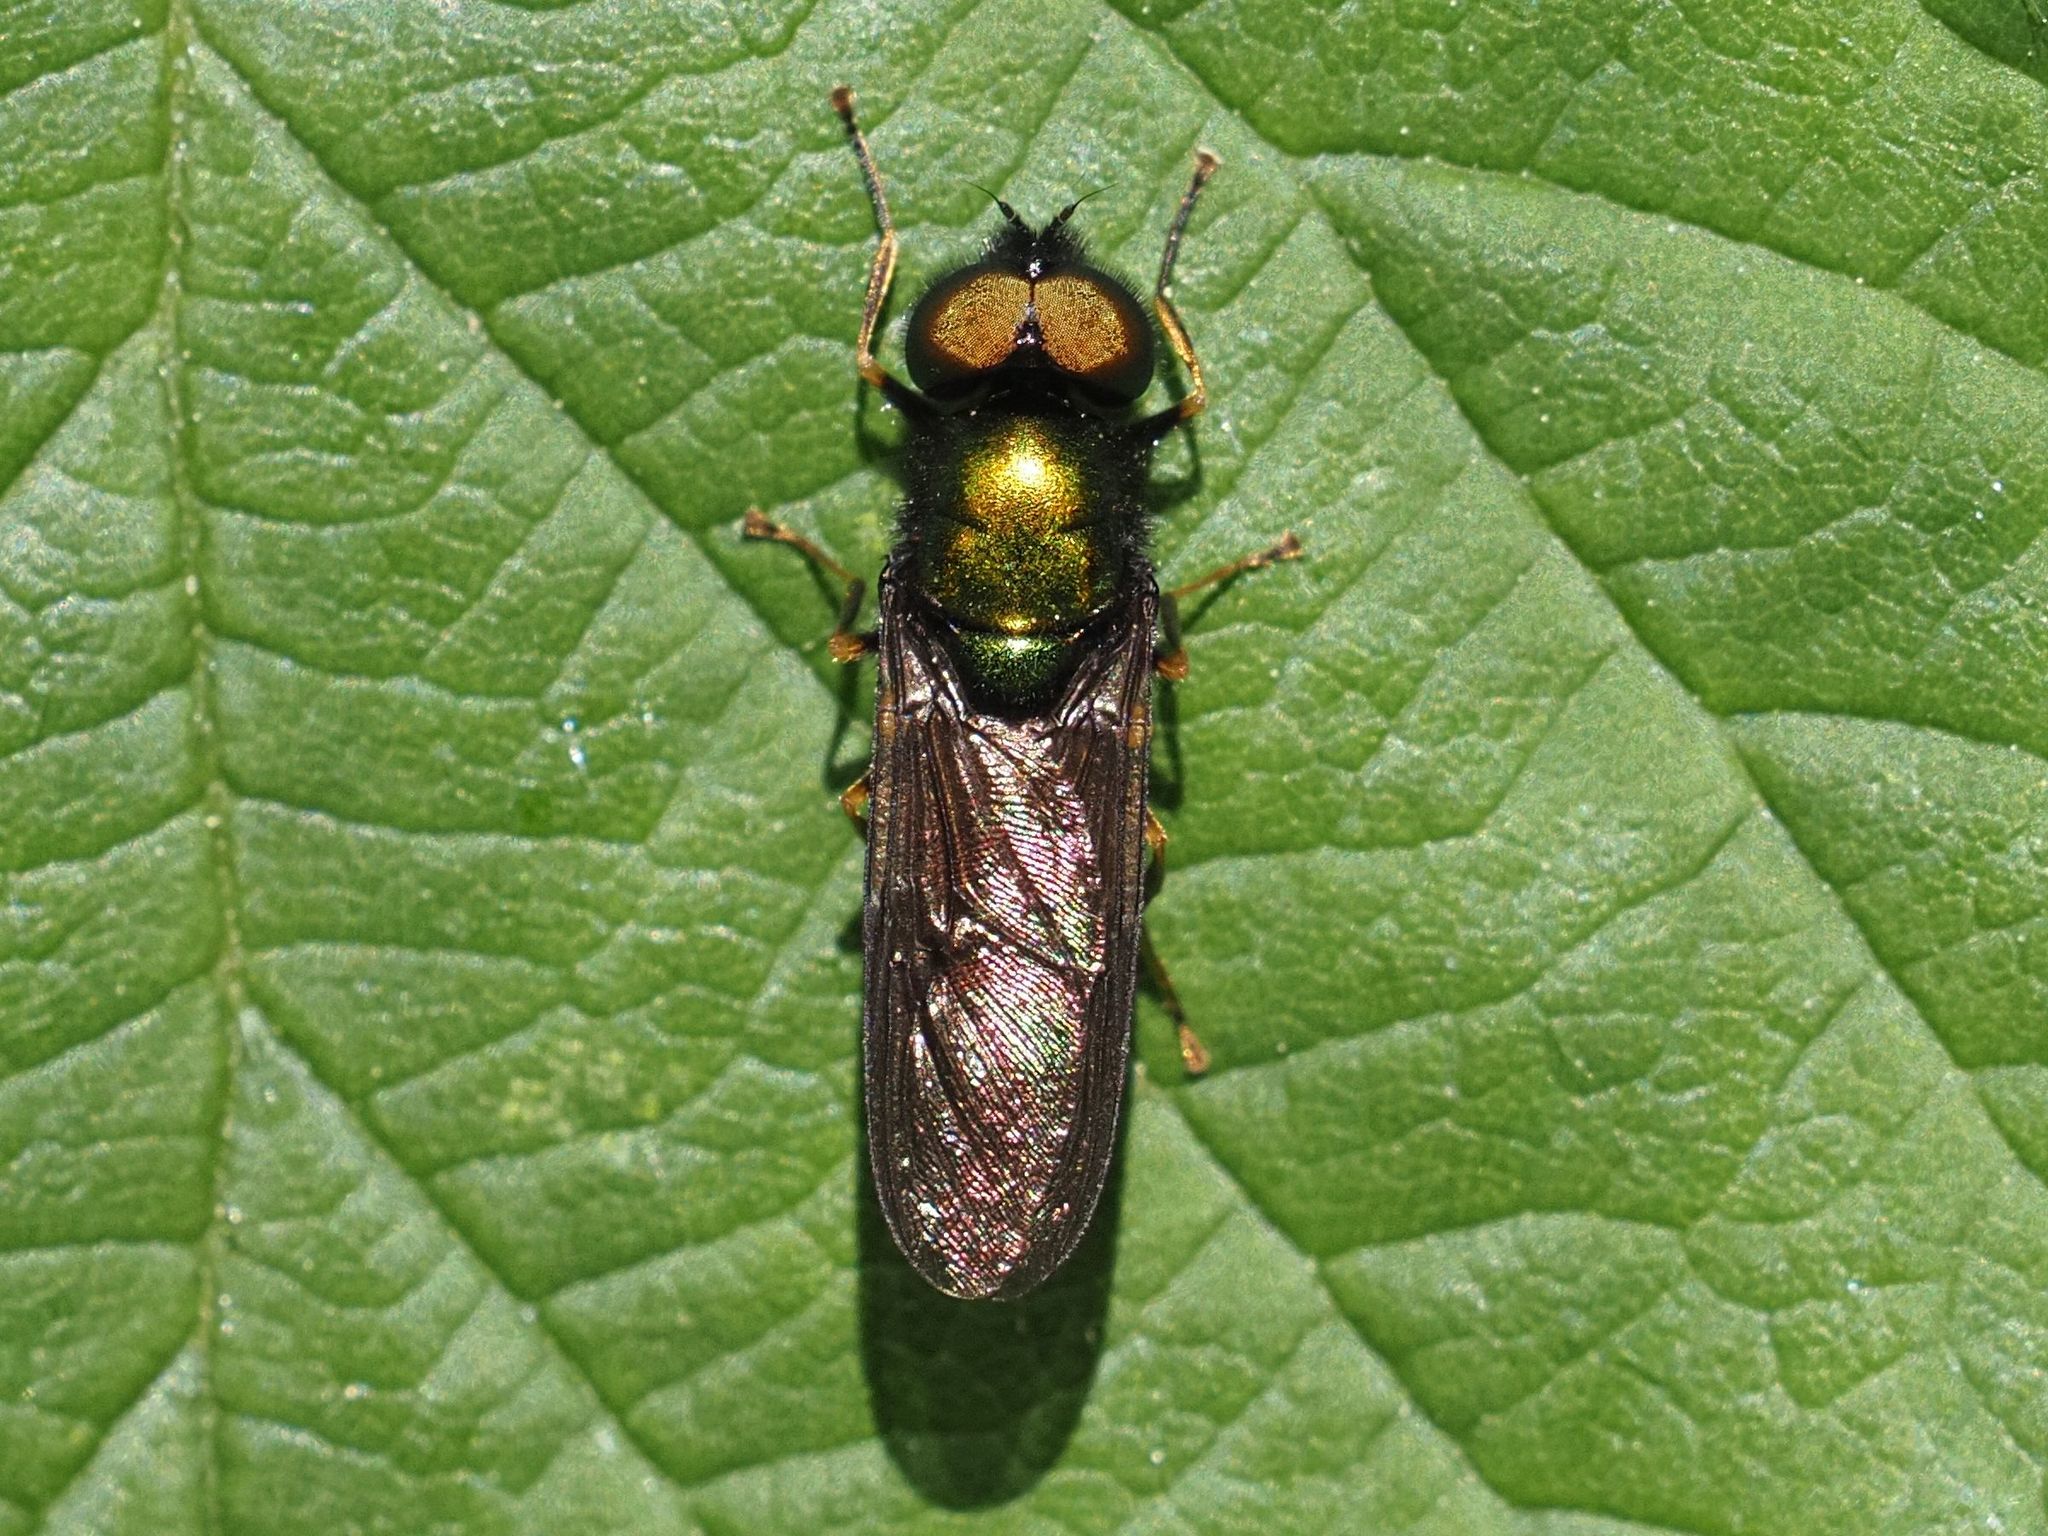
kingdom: Animalia
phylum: Arthropoda
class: Insecta
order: Diptera
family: Stratiomyidae
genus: Chloromyia
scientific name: Chloromyia speciosa
